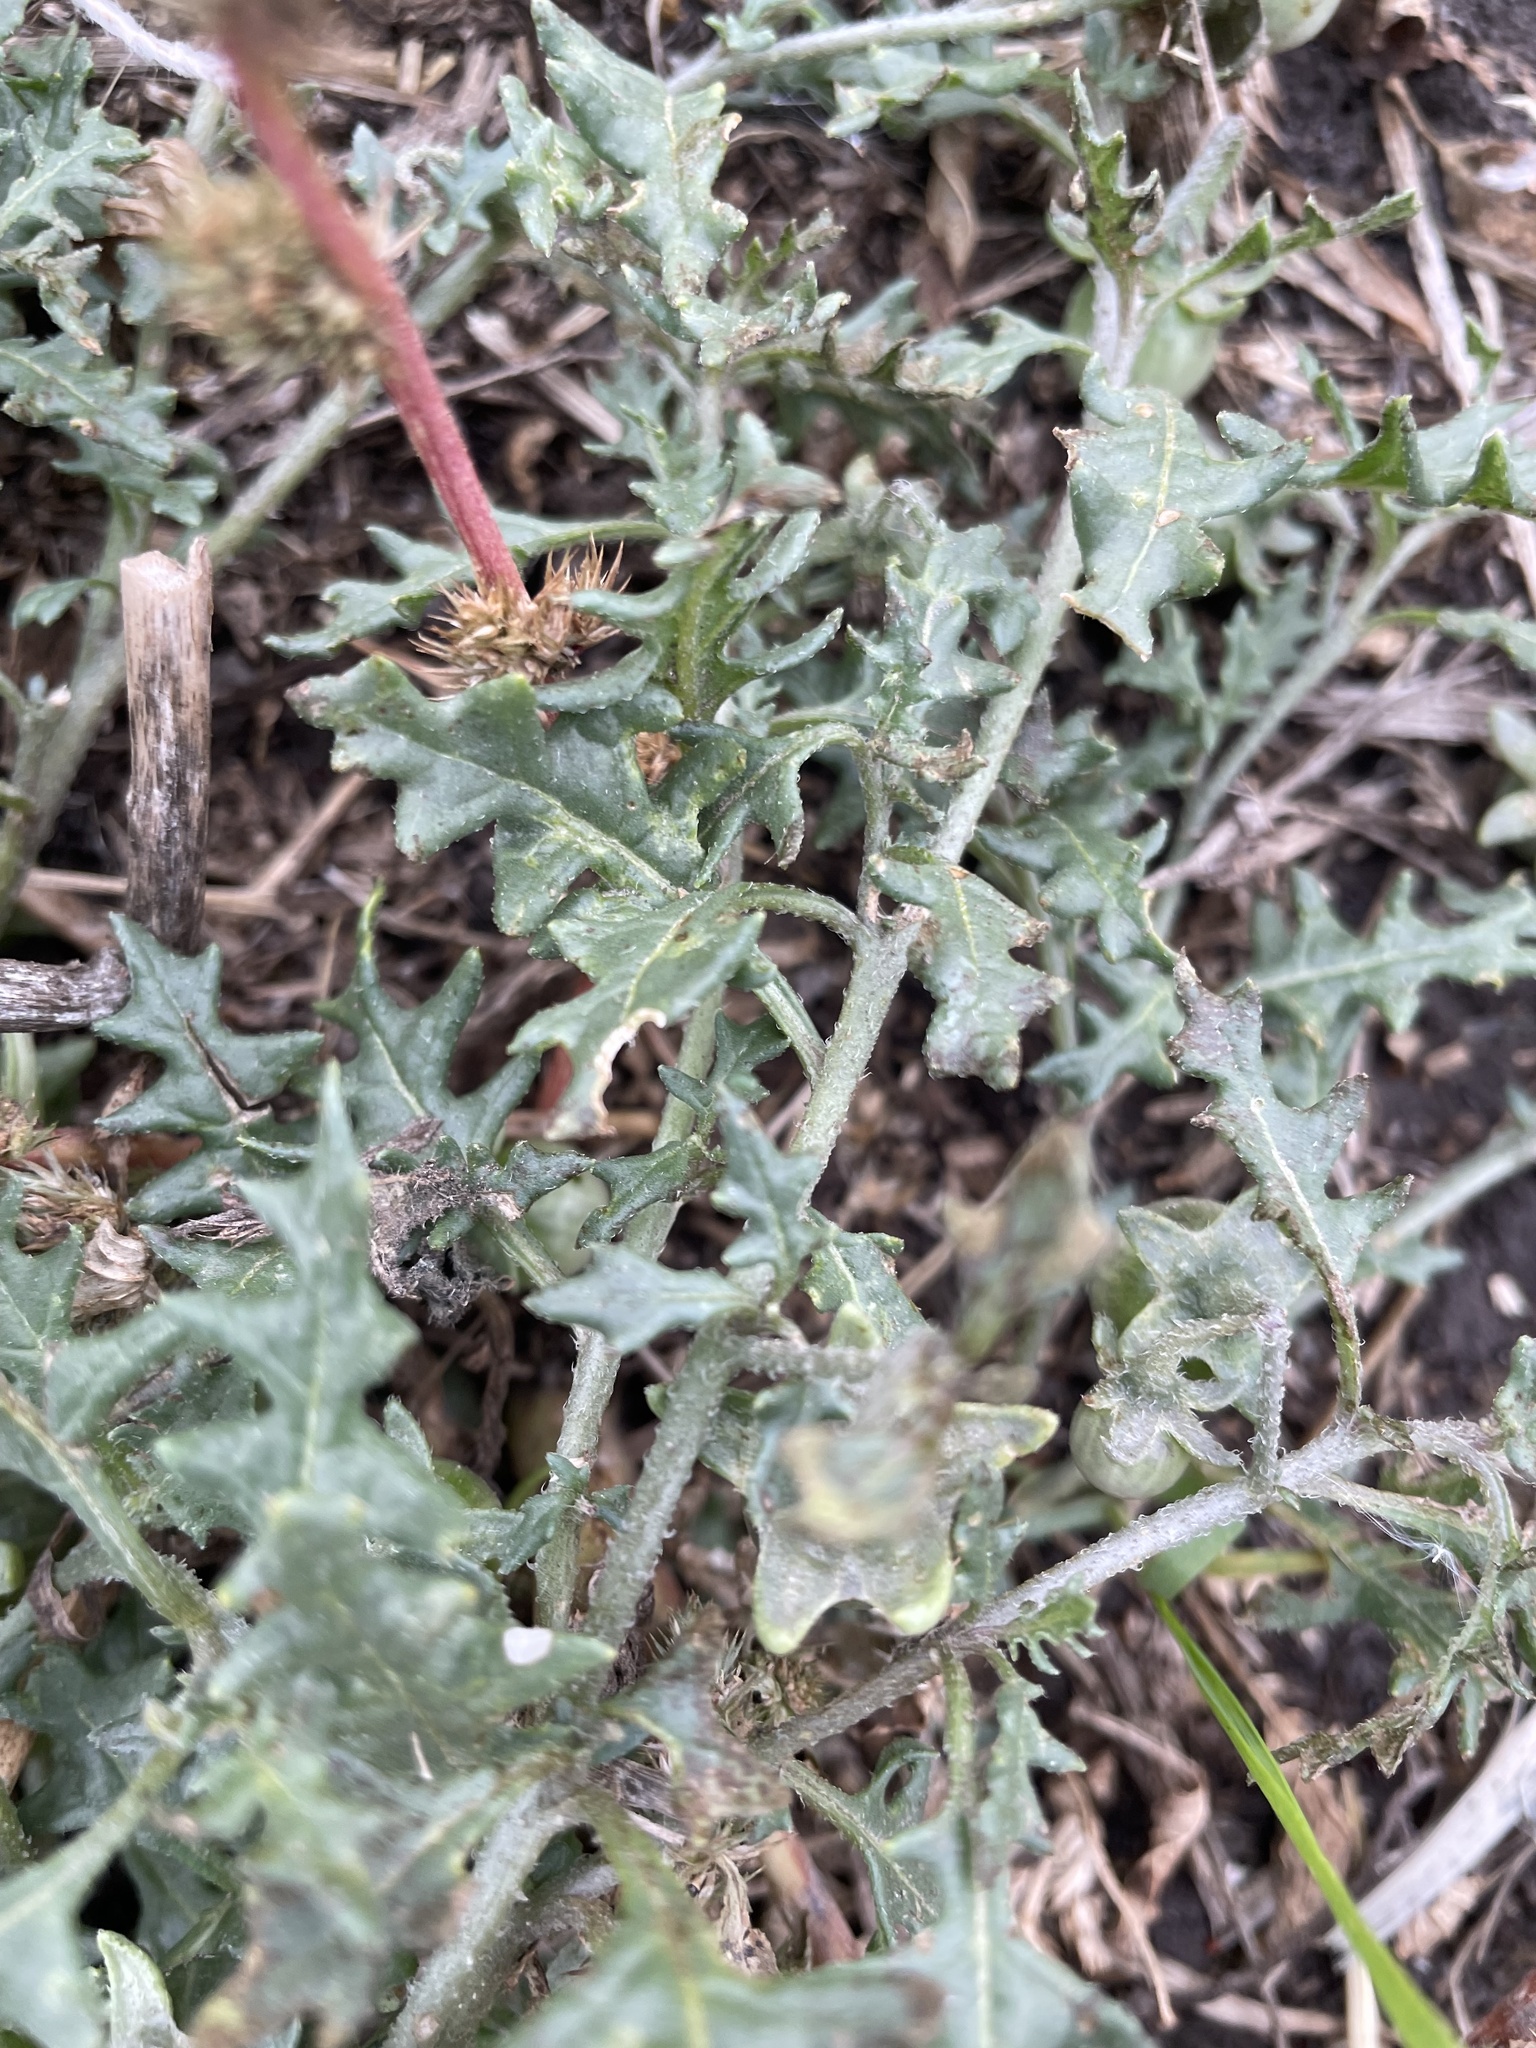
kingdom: Plantae
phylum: Tracheophyta
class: Magnoliopsida
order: Solanales
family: Solanaceae
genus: Solanum
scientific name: Solanum triflorum
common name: Small nightshade
